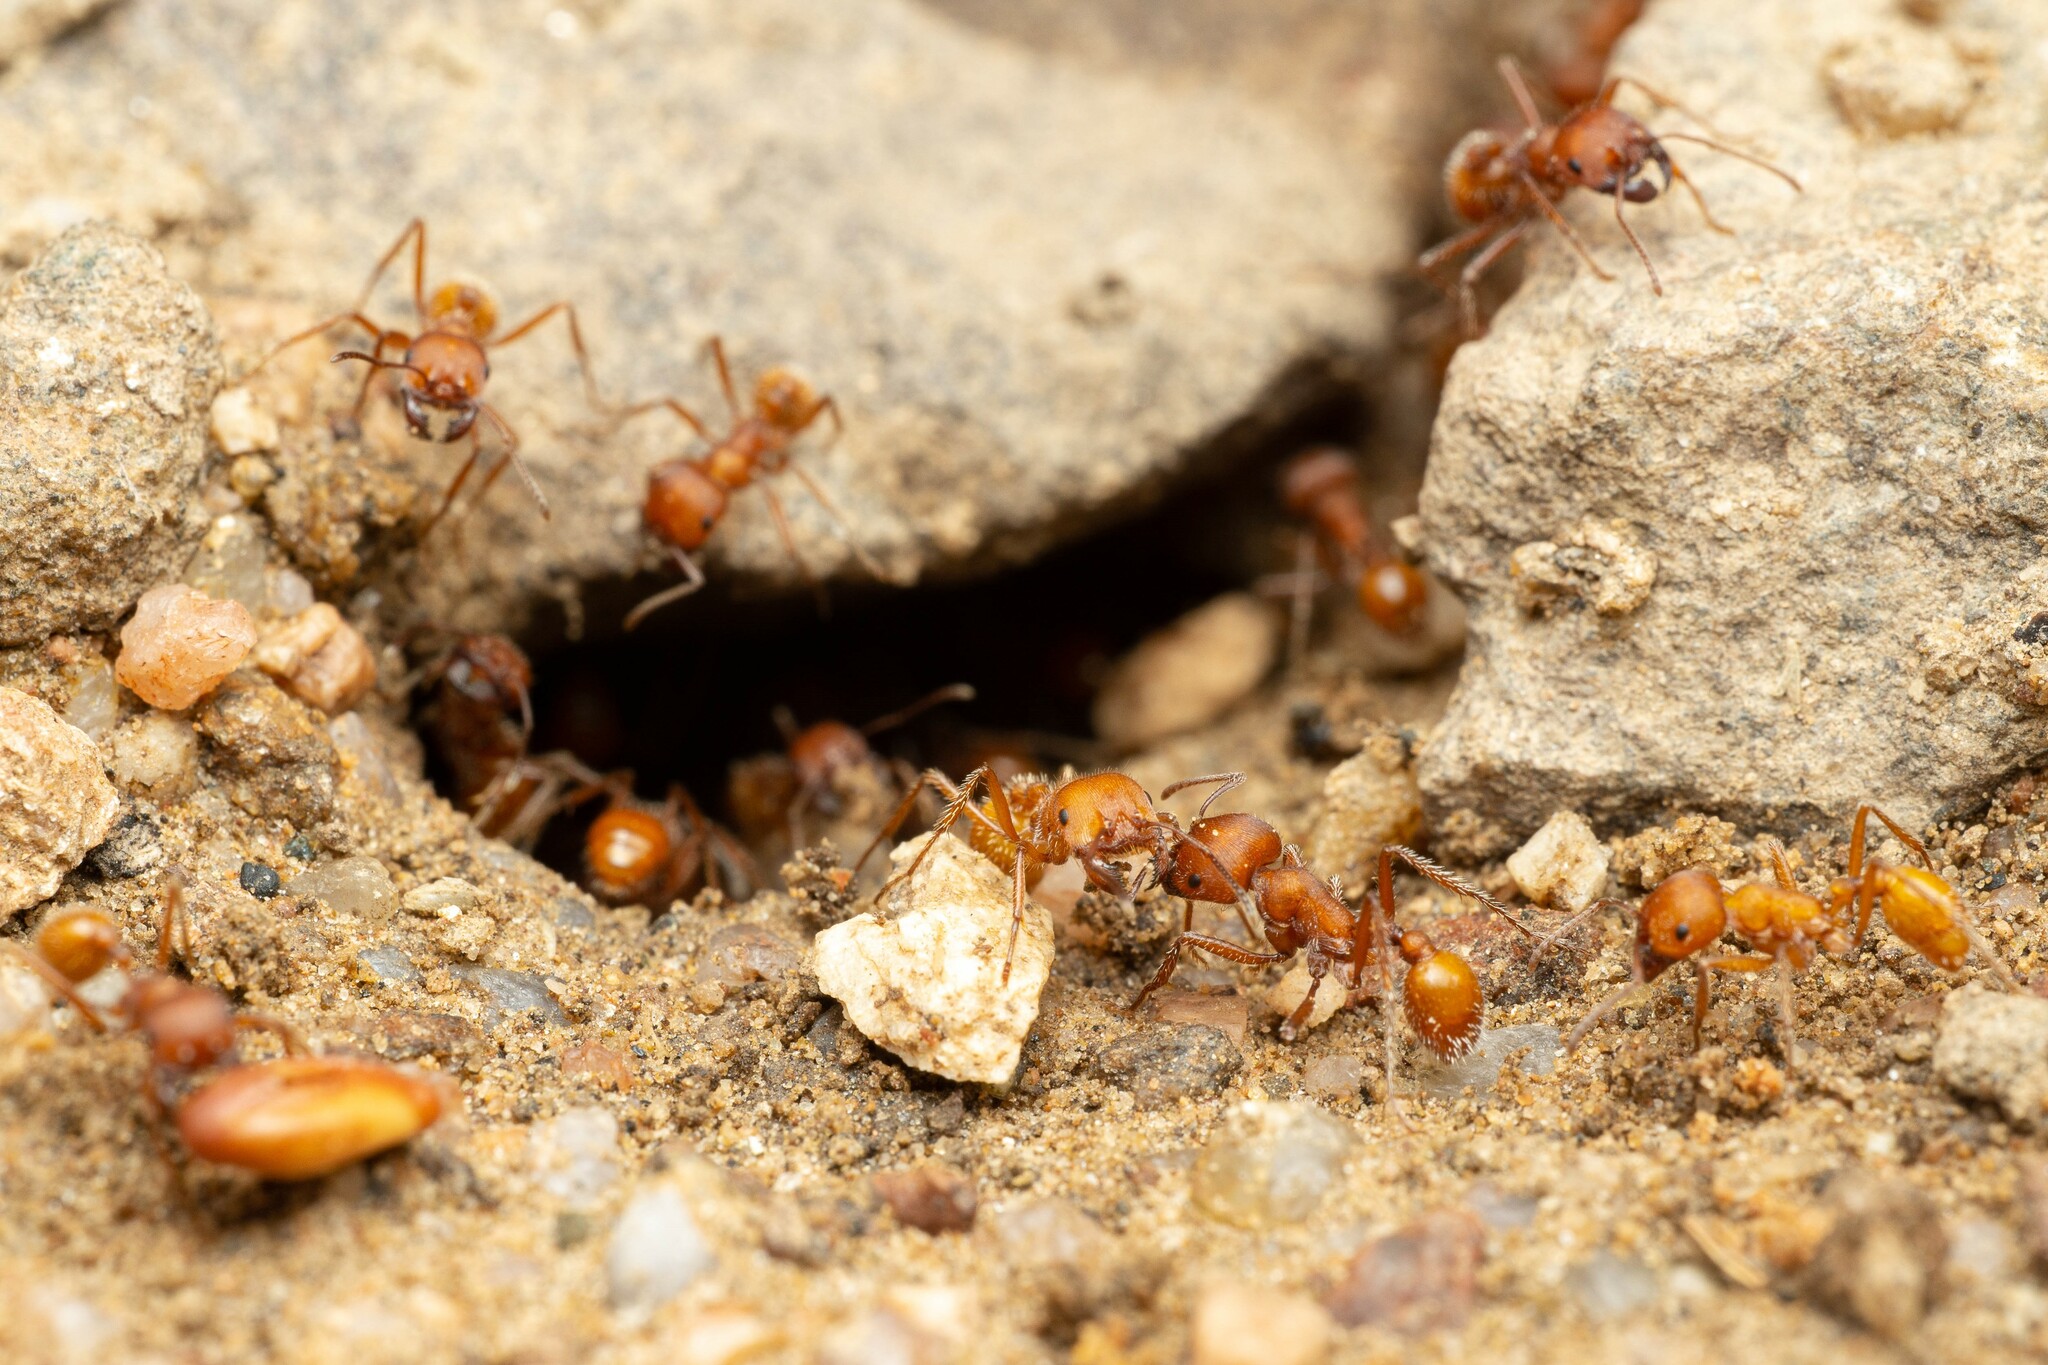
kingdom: Animalia
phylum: Arthropoda
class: Insecta
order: Hymenoptera
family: Formicidae
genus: Pogonomyrmex
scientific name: Pogonomyrmex occidentalis
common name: Western harvester ant
